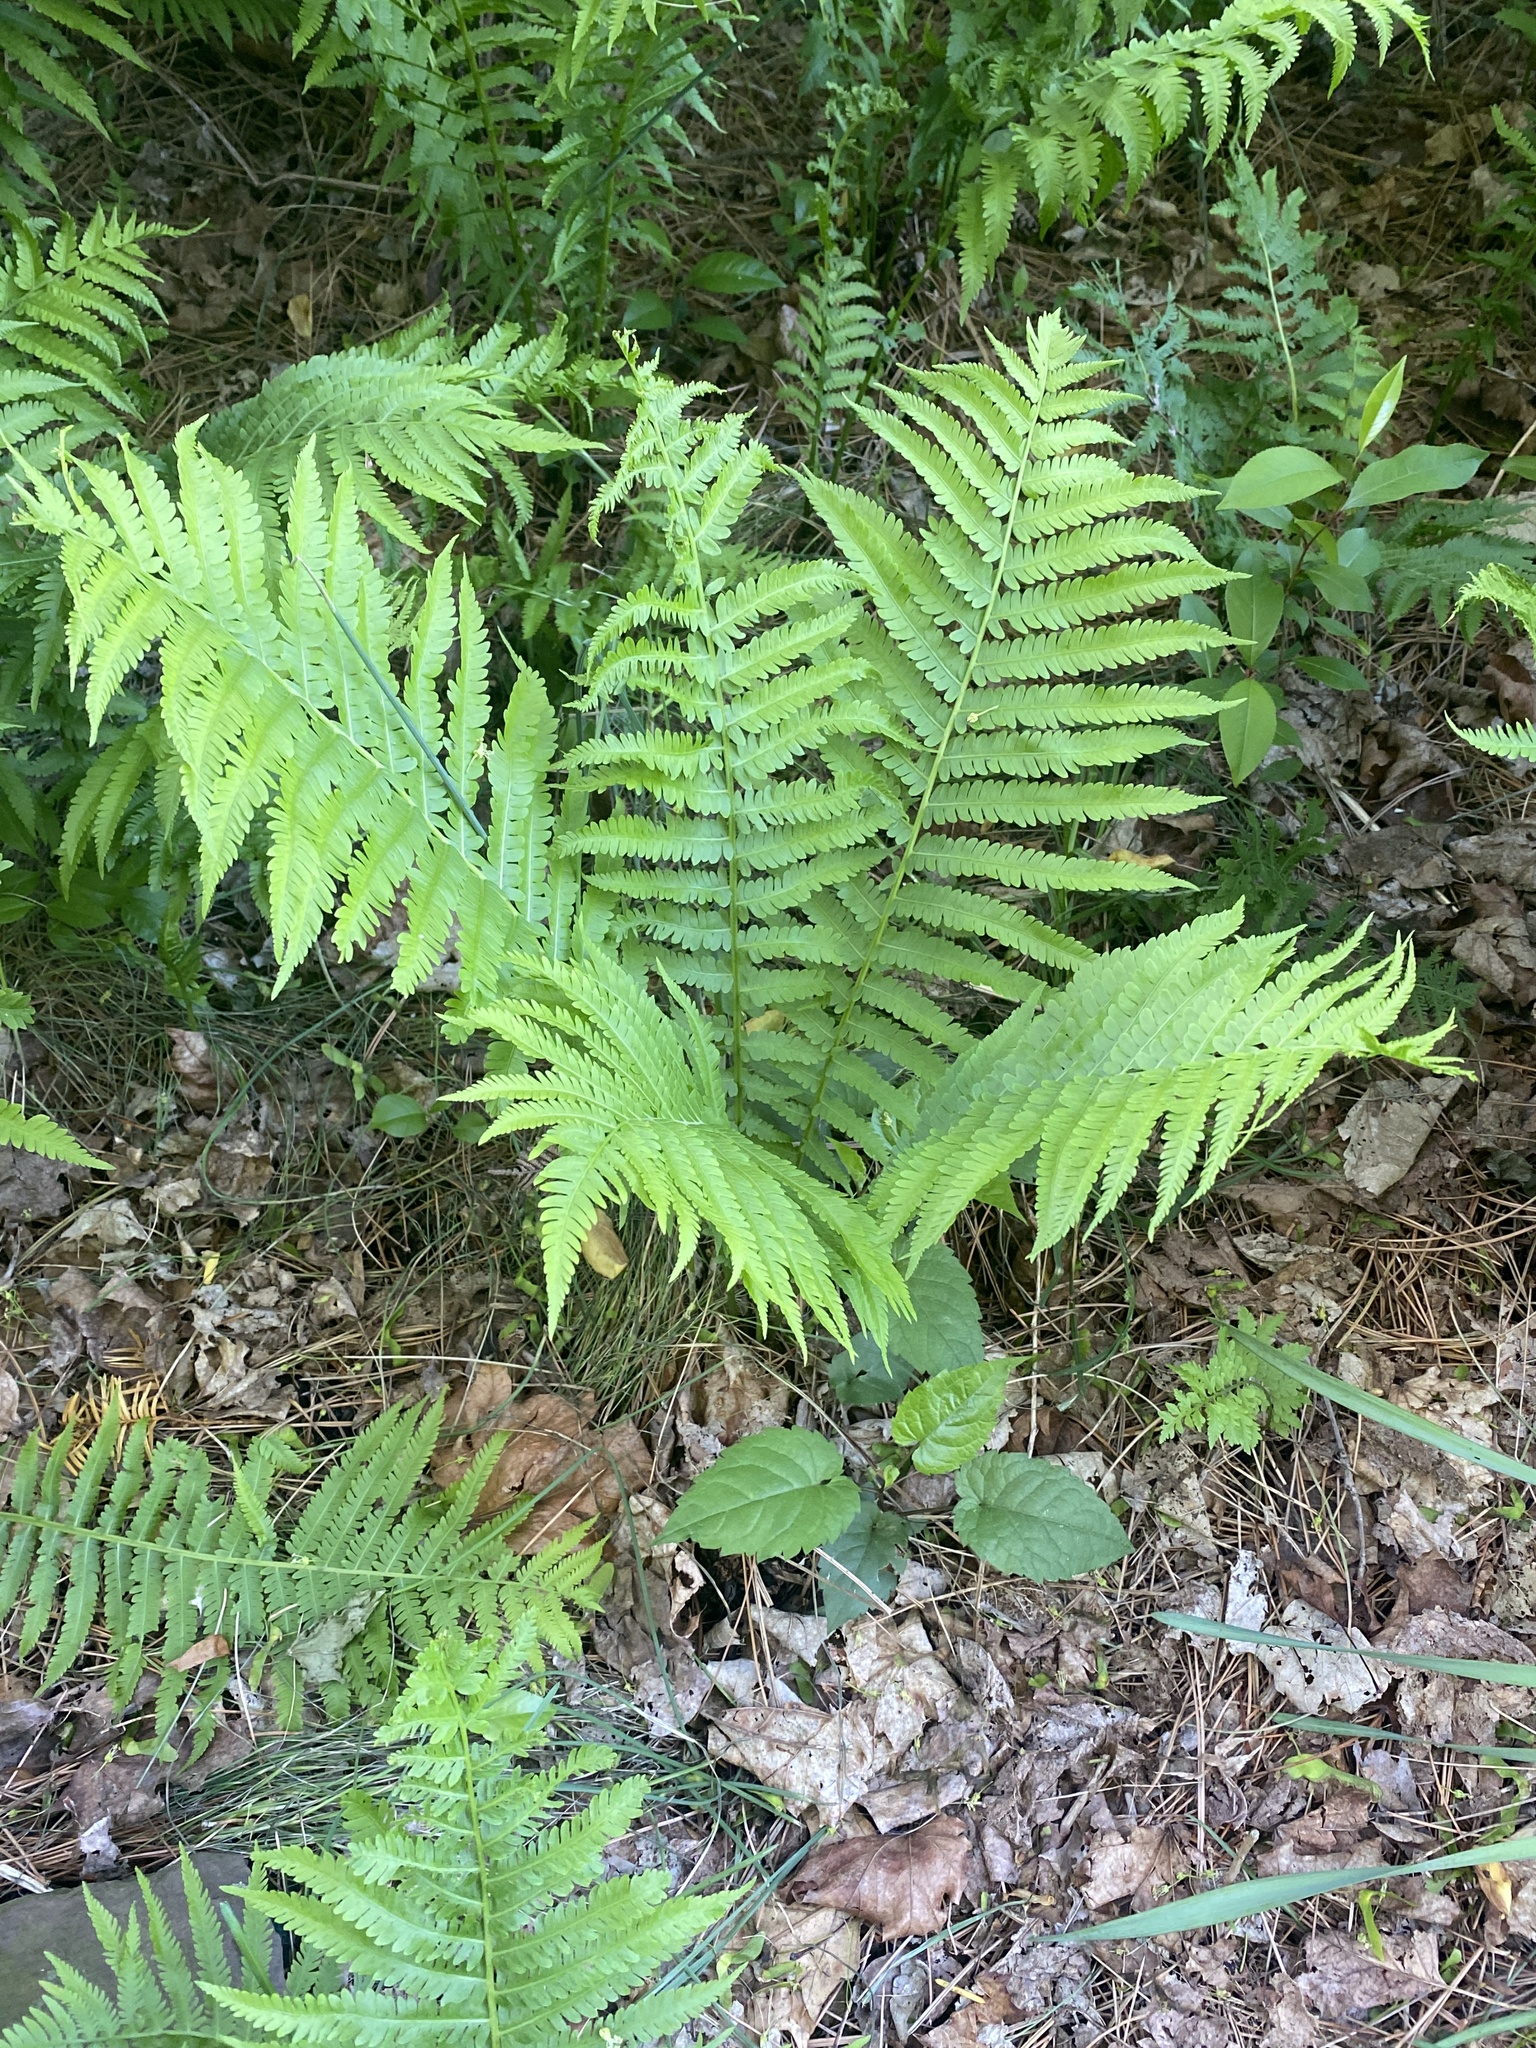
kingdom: Plantae
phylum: Tracheophyta
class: Polypodiopsida
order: Polypodiales
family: Onocleaceae
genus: Matteuccia
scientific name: Matteuccia struthiopteris
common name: Ostrich fern
